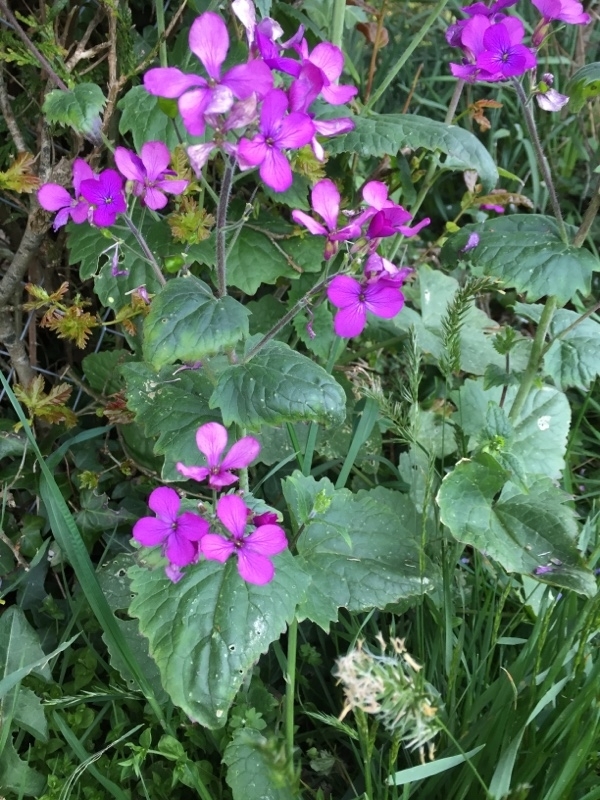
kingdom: Plantae
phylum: Tracheophyta
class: Magnoliopsida
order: Brassicales
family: Brassicaceae
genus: Lunaria
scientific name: Lunaria annua
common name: Honesty
